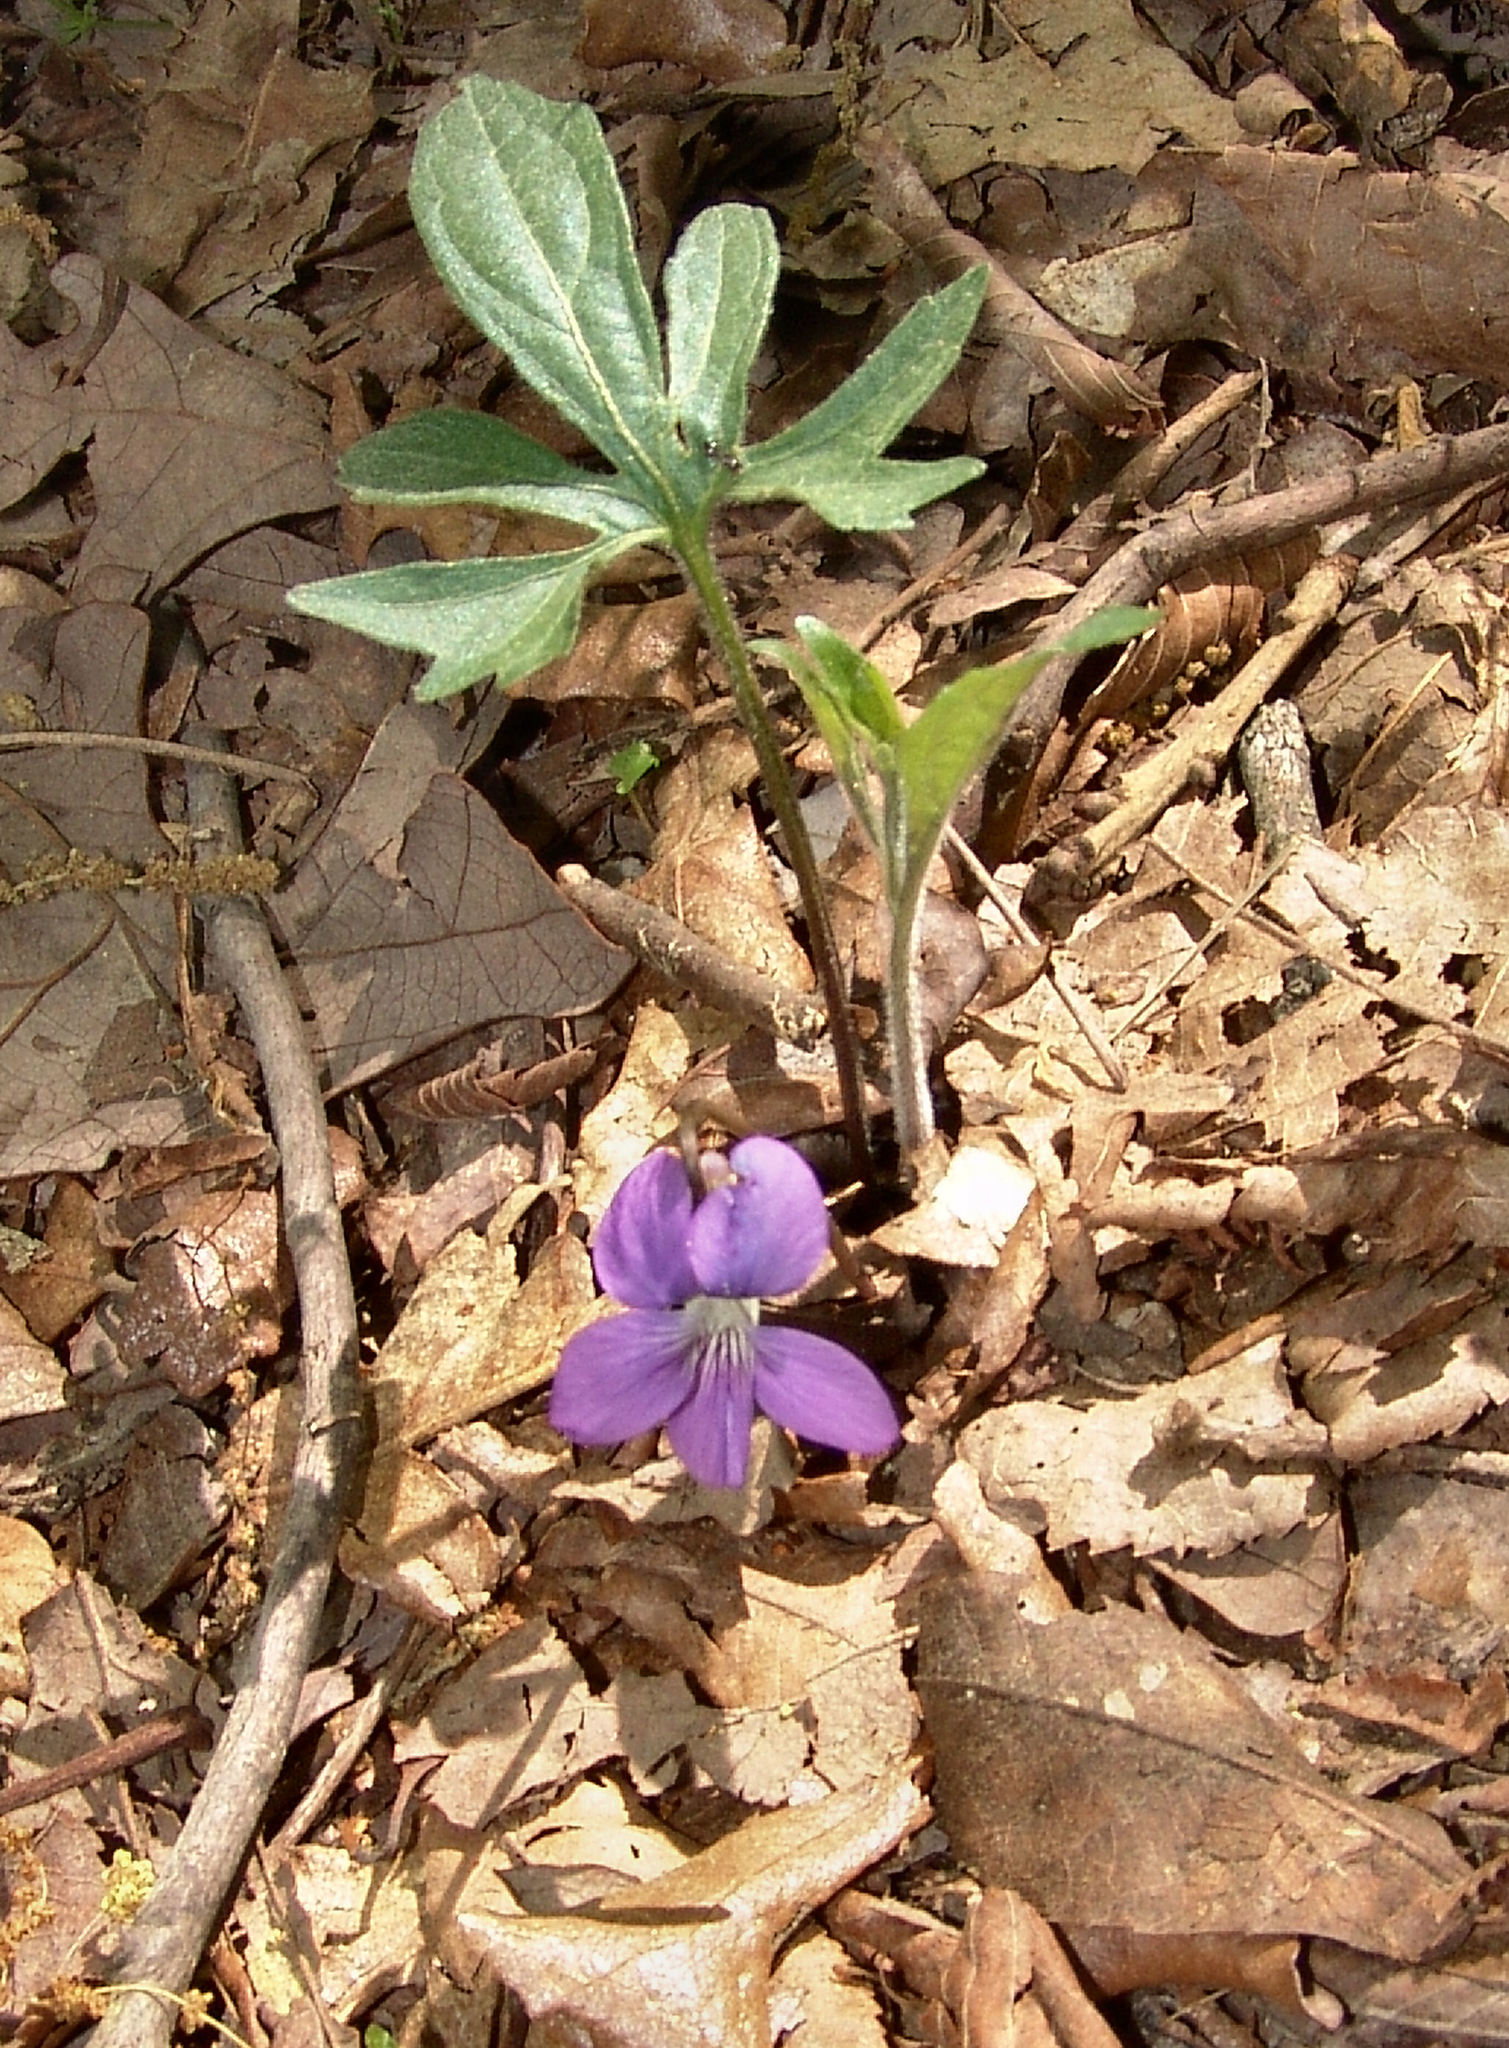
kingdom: Plantae
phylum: Tracheophyta
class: Magnoliopsida
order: Malpighiales
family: Violaceae
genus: Viola
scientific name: Viola palmata
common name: Early blue violet
